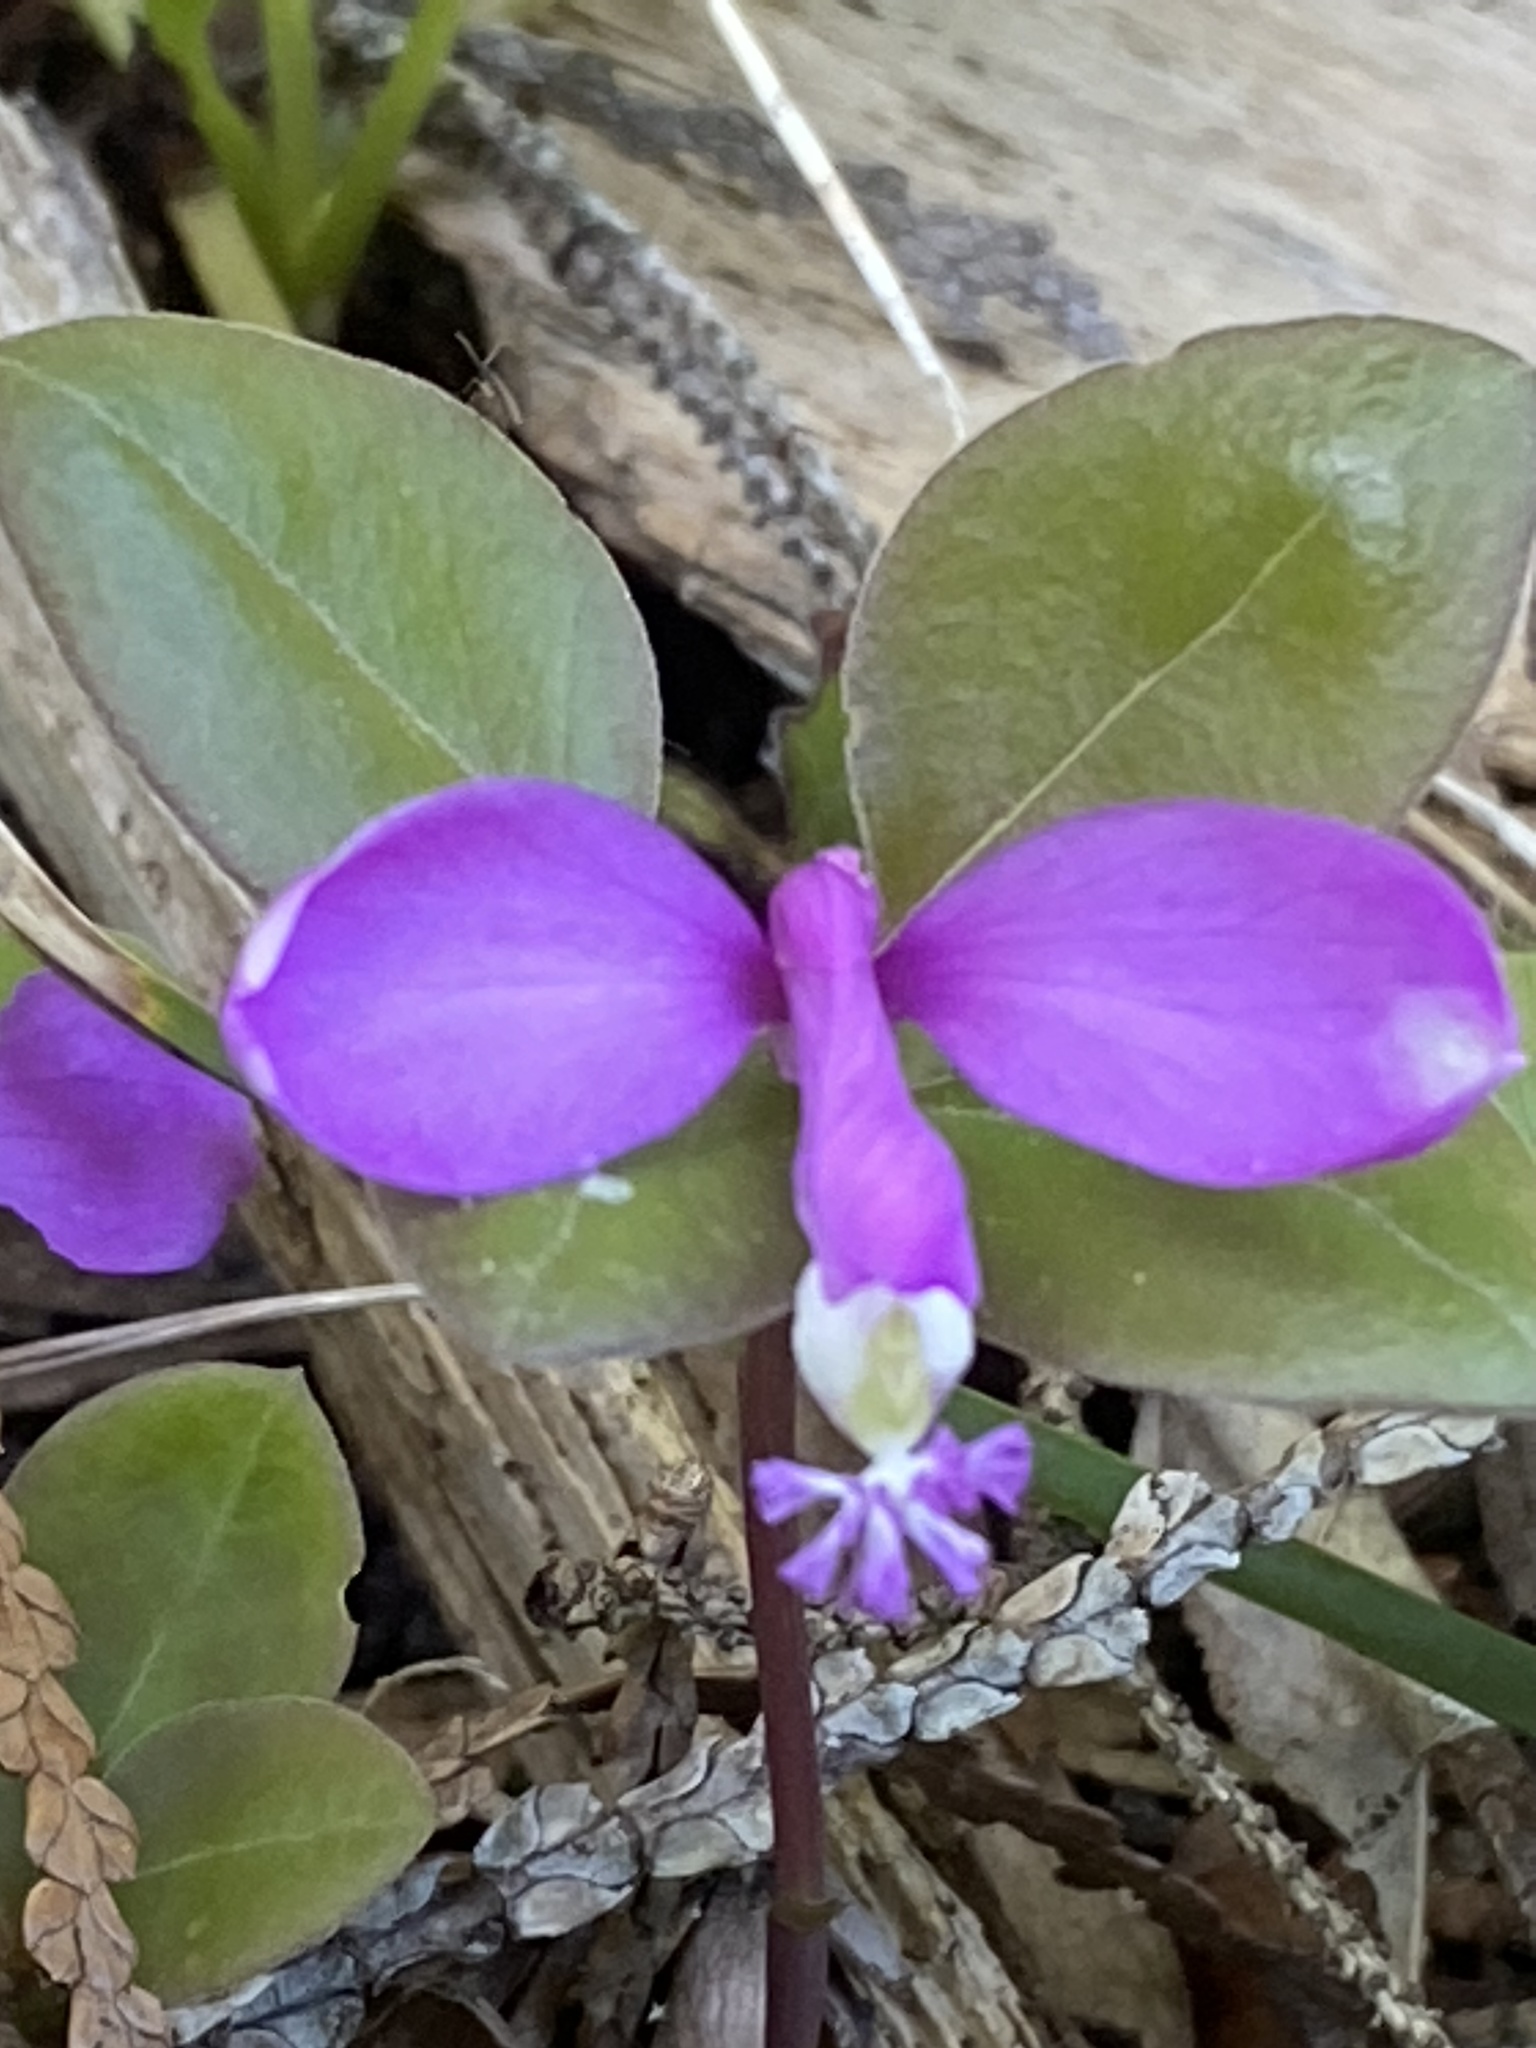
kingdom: Plantae
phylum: Tracheophyta
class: Magnoliopsida
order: Fabales
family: Polygalaceae
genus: Polygaloides
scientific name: Polygaloides paucifolia
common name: Bird-on-the-wing
